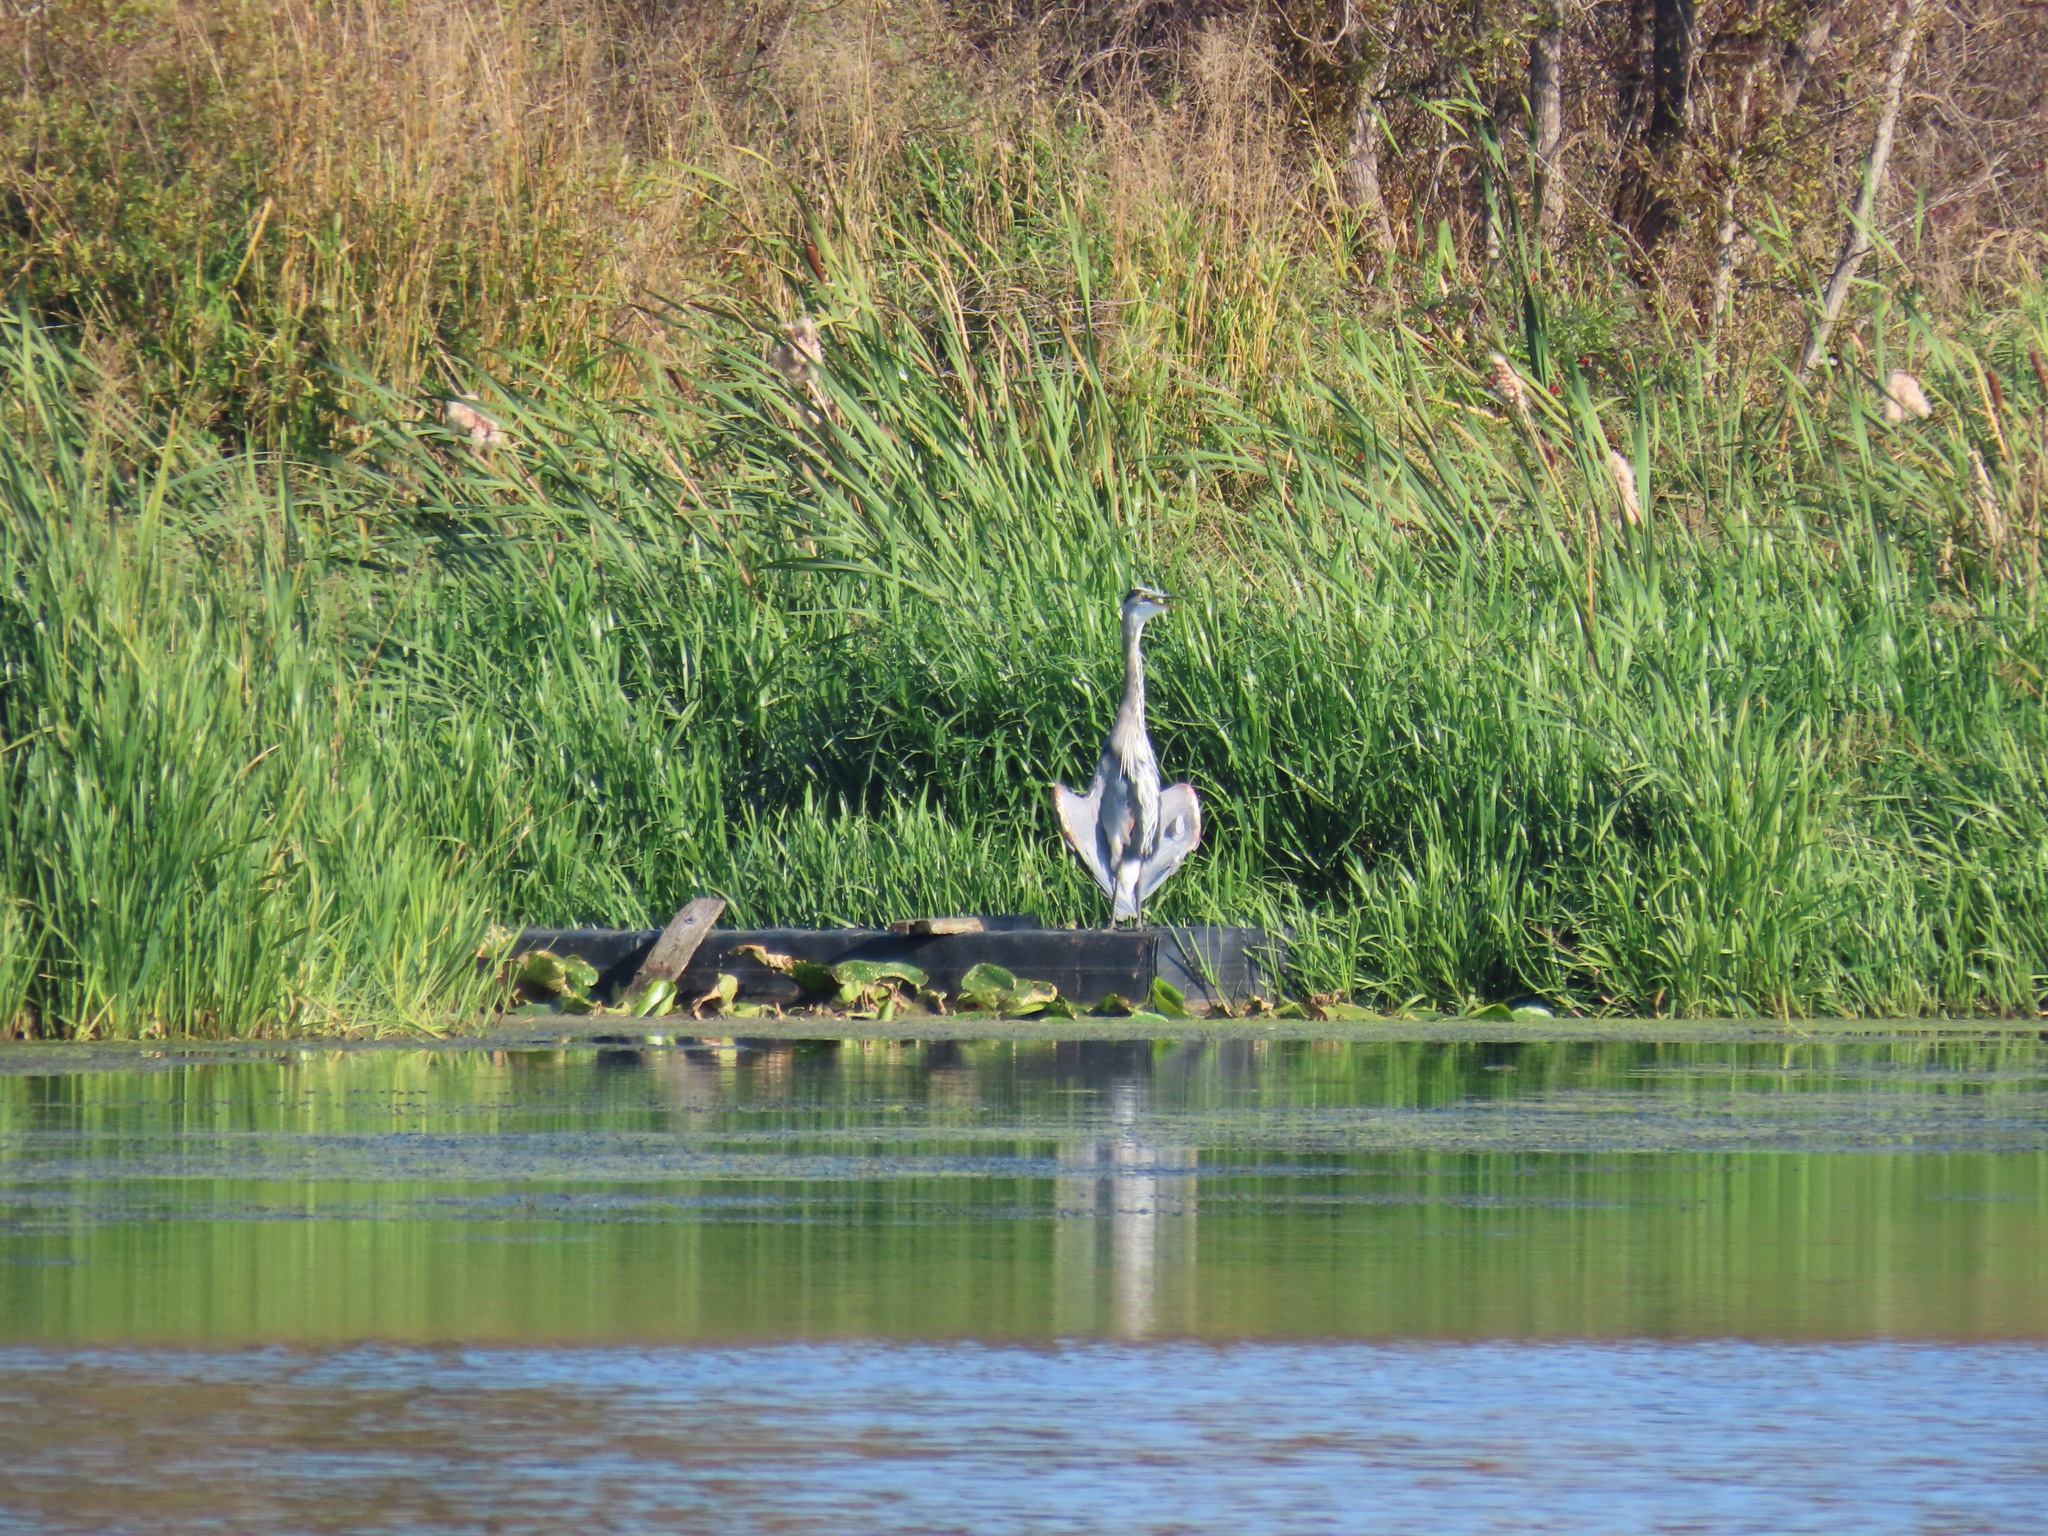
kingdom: Animalia
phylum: Chordata
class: Aves
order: Pelecaniformes
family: Ardeidae
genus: Ardea
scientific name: Ardea herodias
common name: Great blue heron
